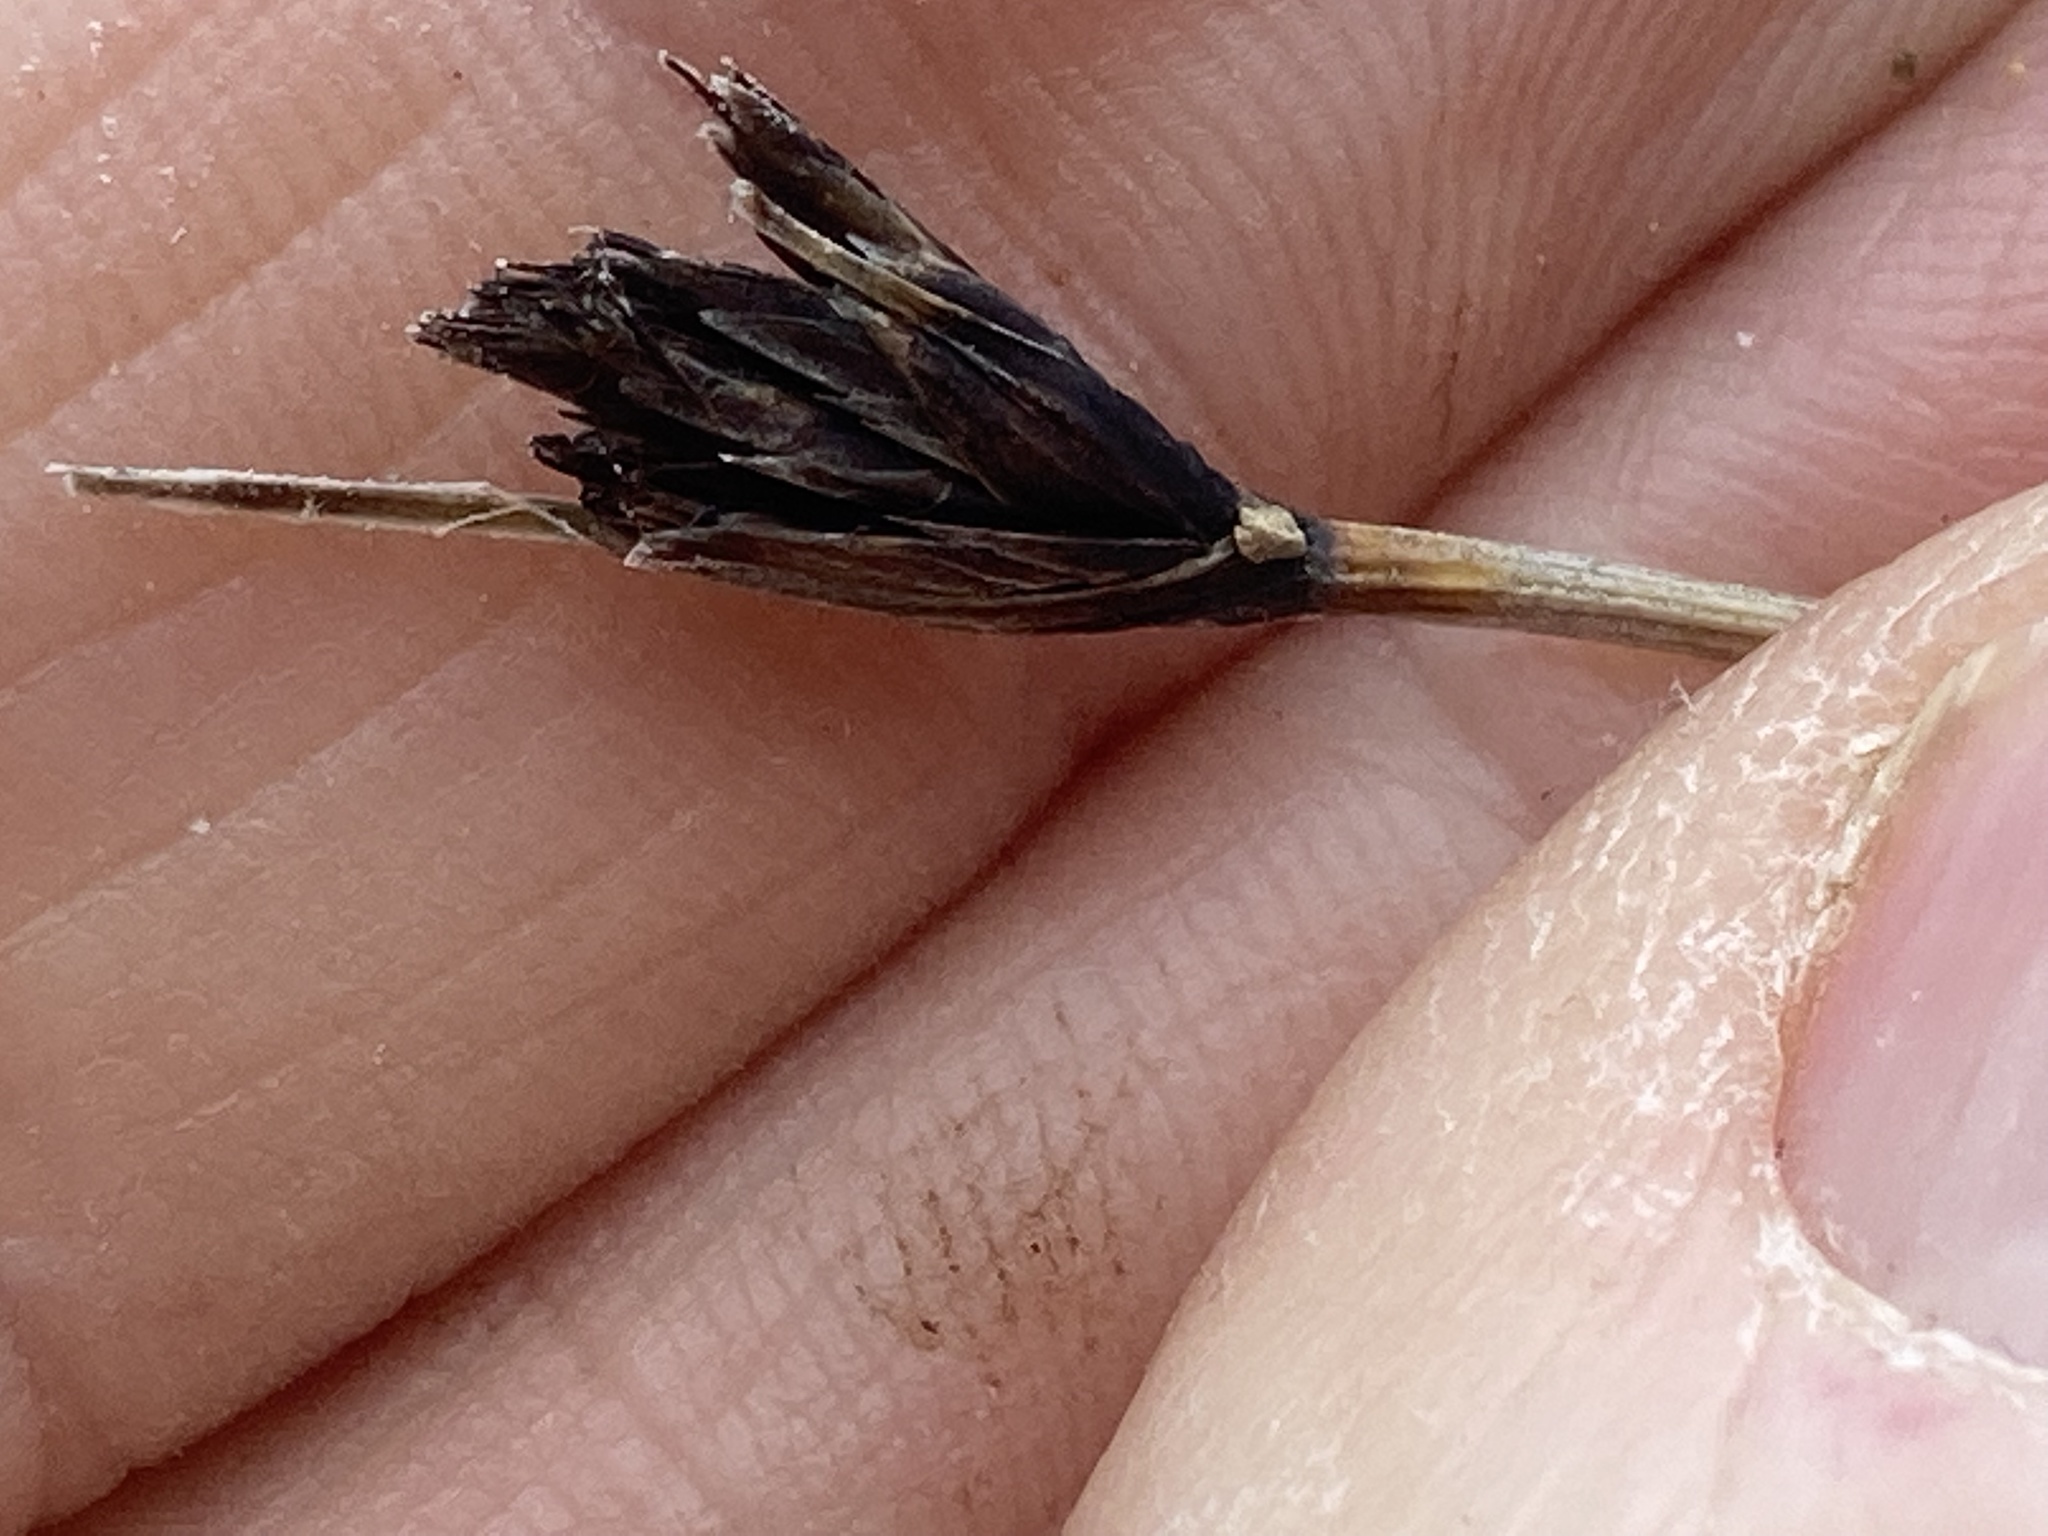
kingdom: Plantae
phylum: Tracheophyta
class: Liliopsida
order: Poales
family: Cyperaceae
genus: Schoenus
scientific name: Schoenus nigricans
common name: Black bog-rush
